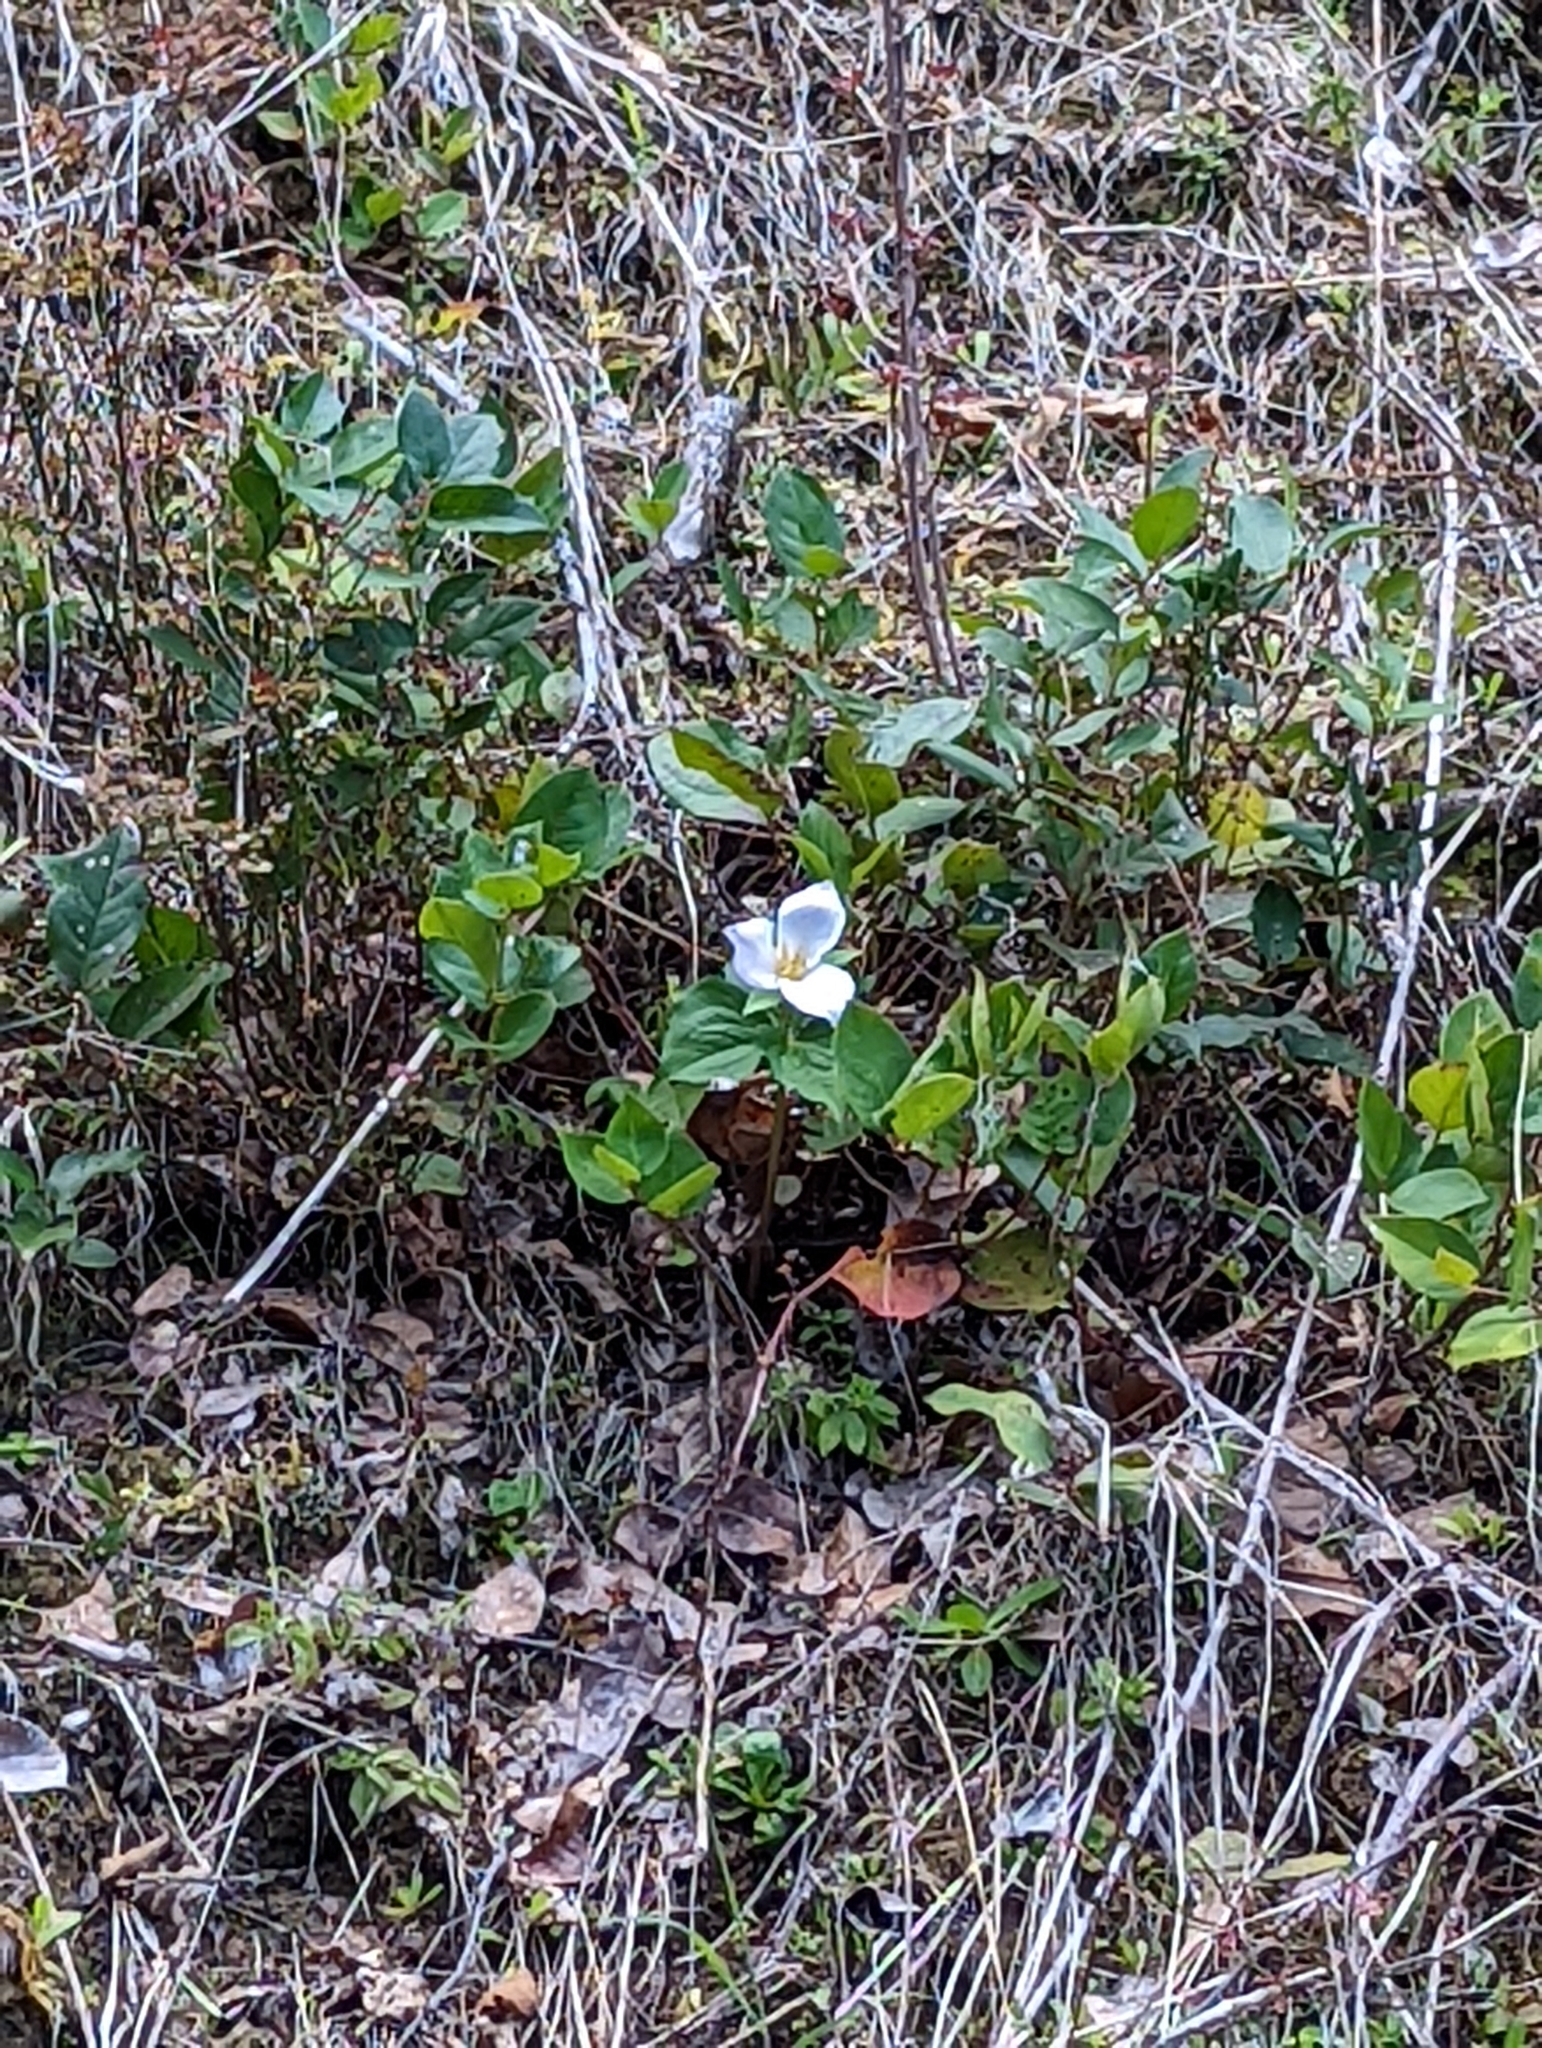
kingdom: Plantae
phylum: Tracheophyta
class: Liliopsida
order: Liliales
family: Melanthiaceae
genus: Trillium
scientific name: Trillium ovatum
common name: Pacific trillium
